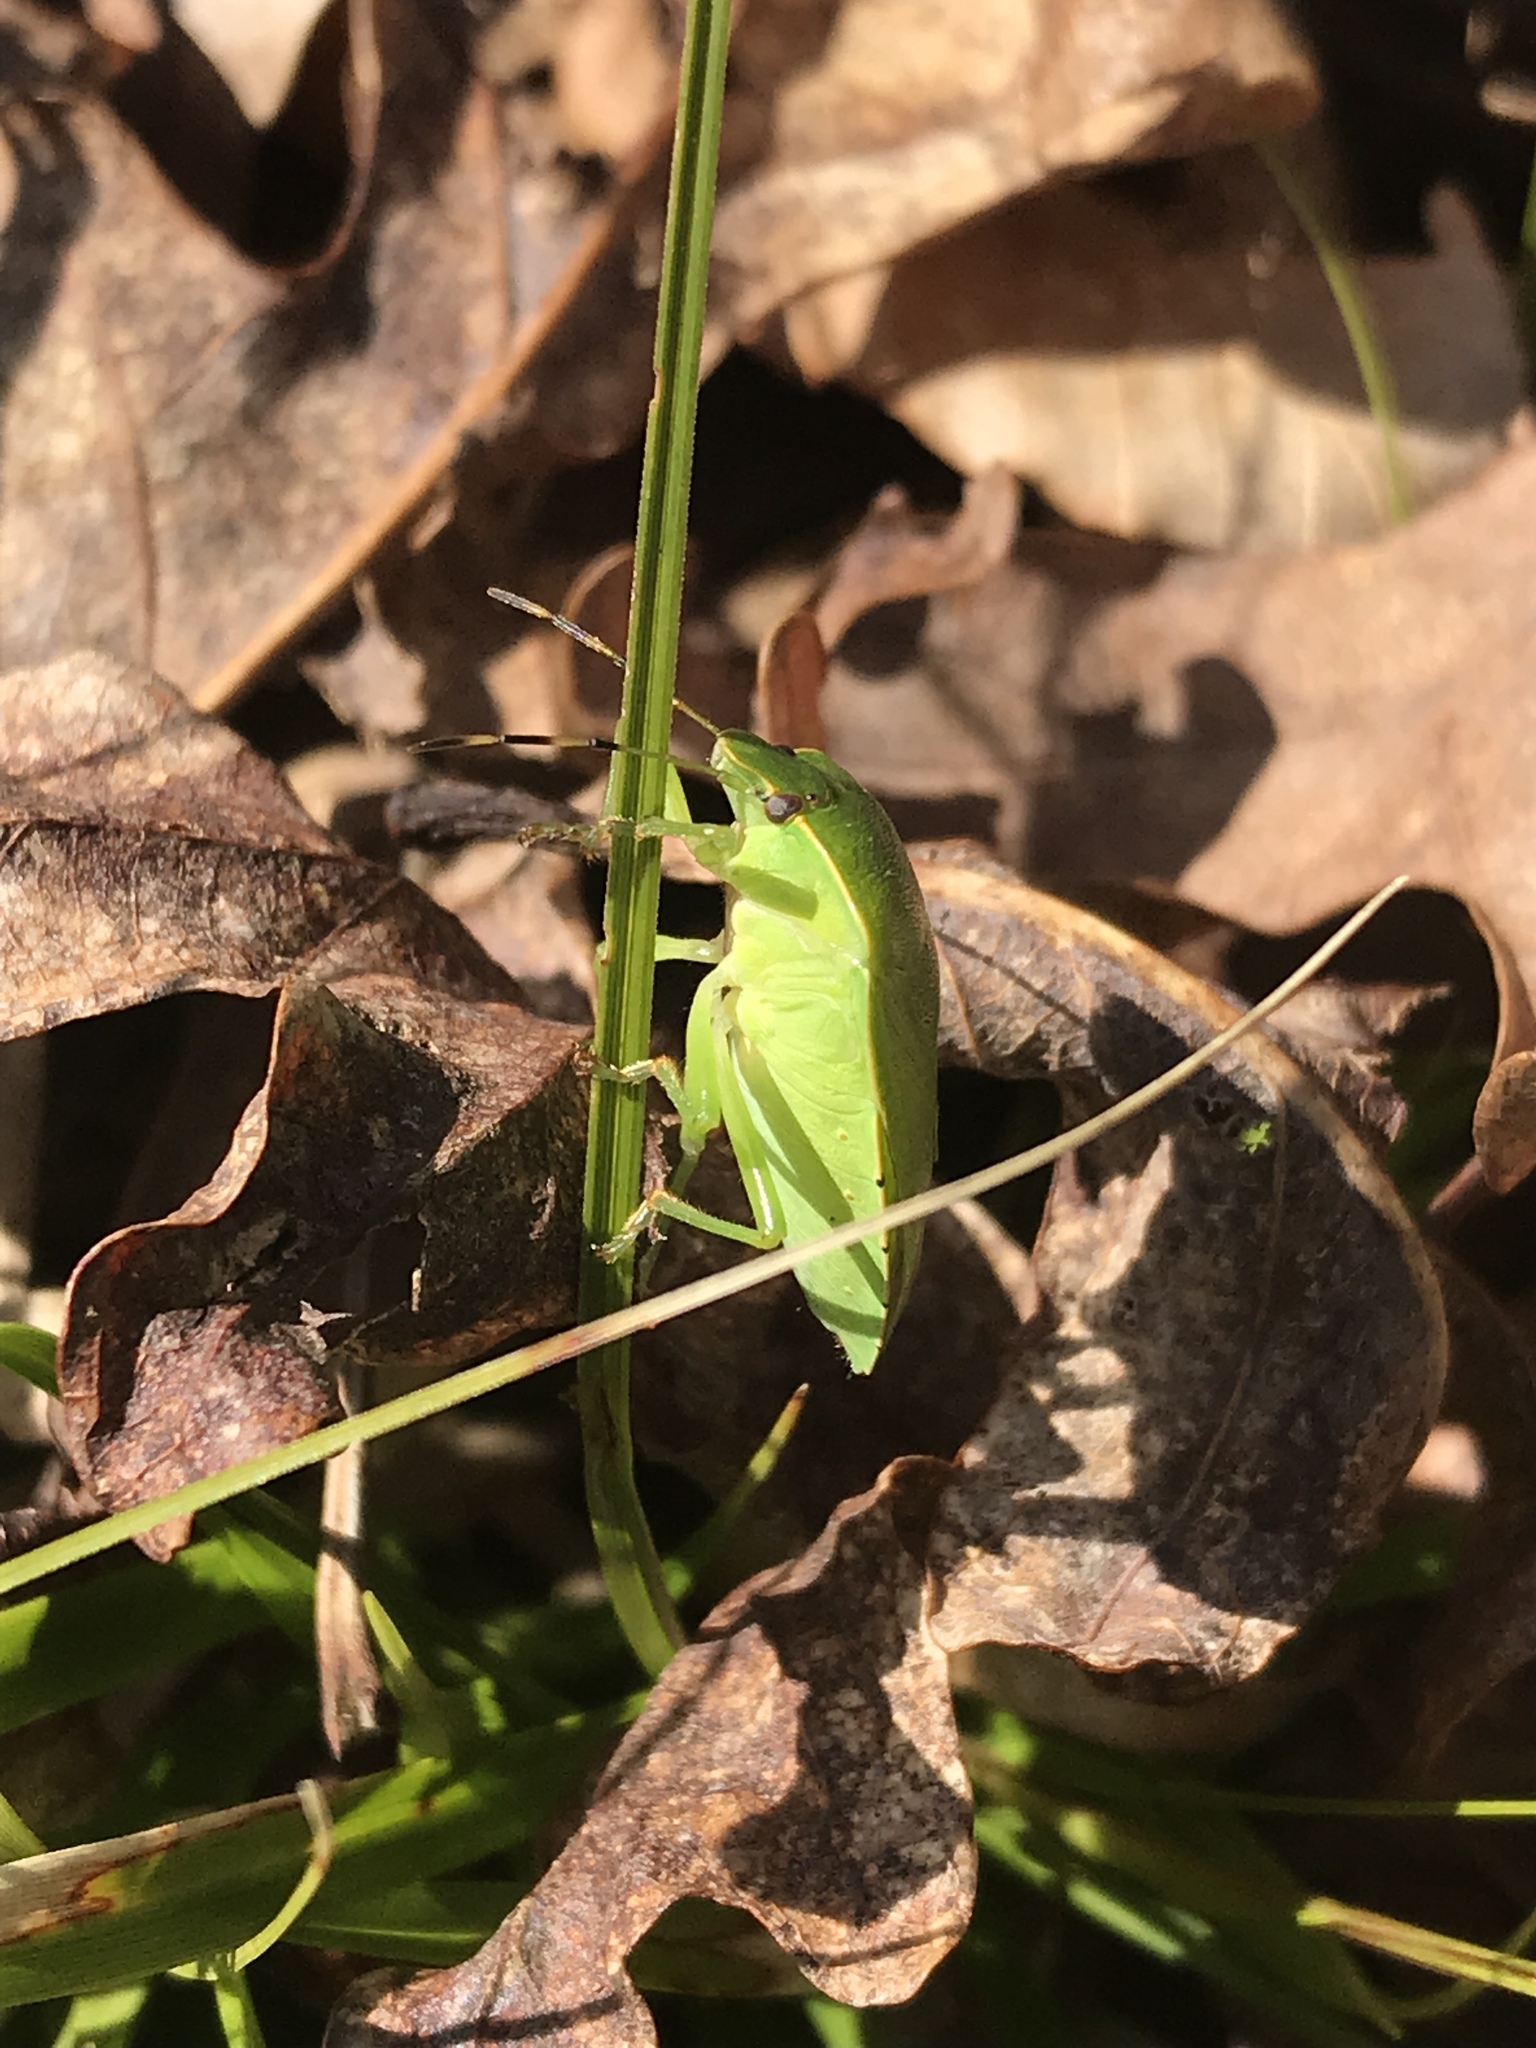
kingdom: Animalia
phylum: Arthropoda
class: Insecta
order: Hemiptera
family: Pentatomidae
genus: Chinavia
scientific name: Chinavia hilaris
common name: Green stink bug
